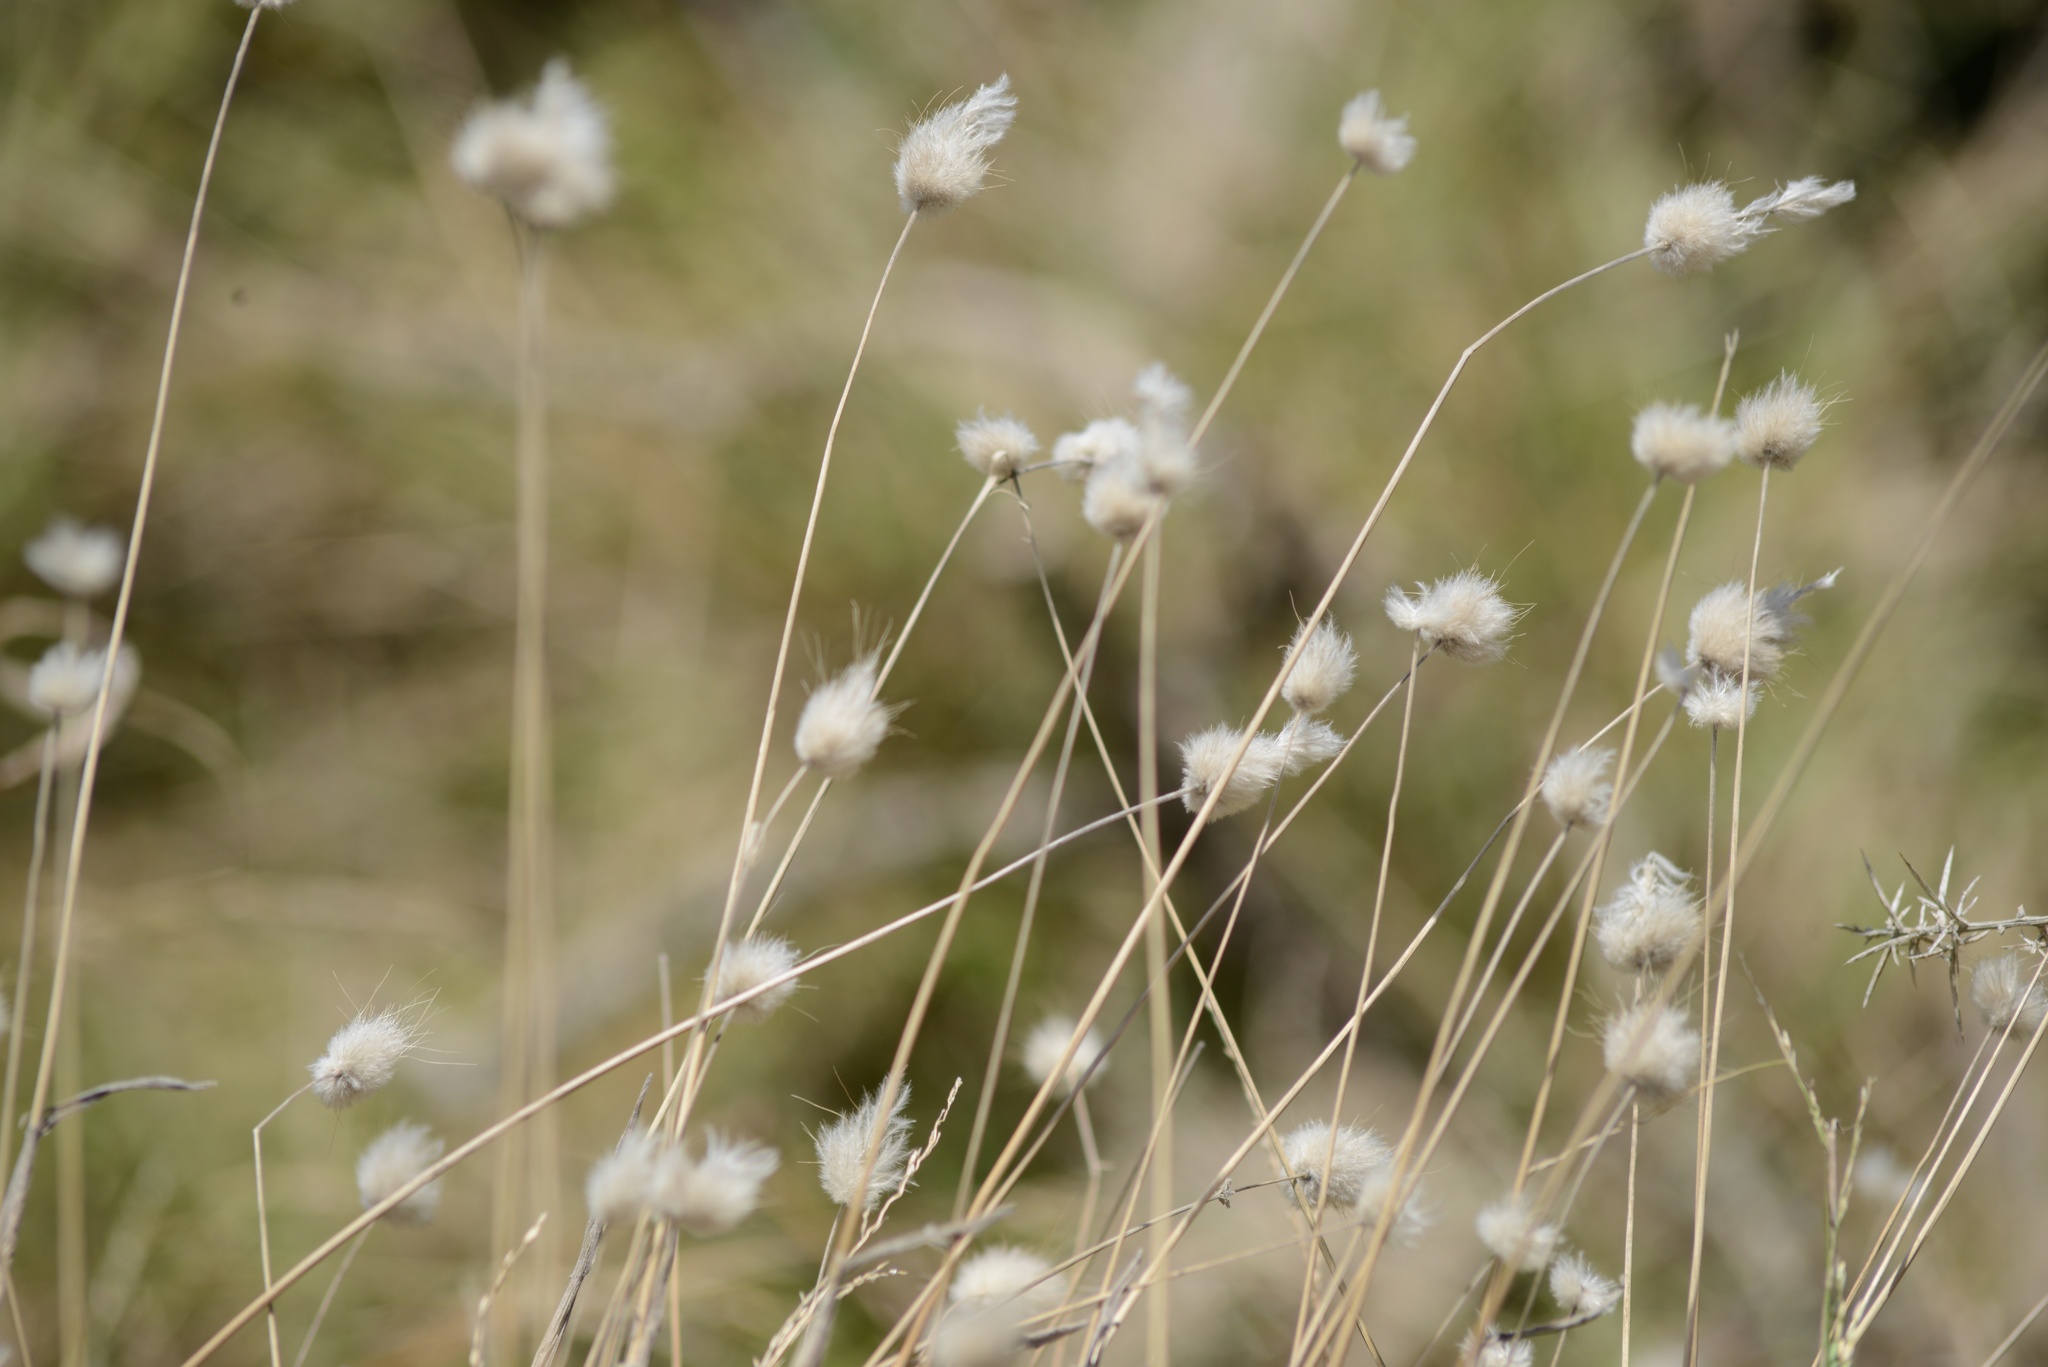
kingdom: Plantae
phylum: Tracheophyta
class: Liliopsida
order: Poales
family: Poaceae
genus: Lagurus
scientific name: Lagurus ovatus
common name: Hare's-tail
